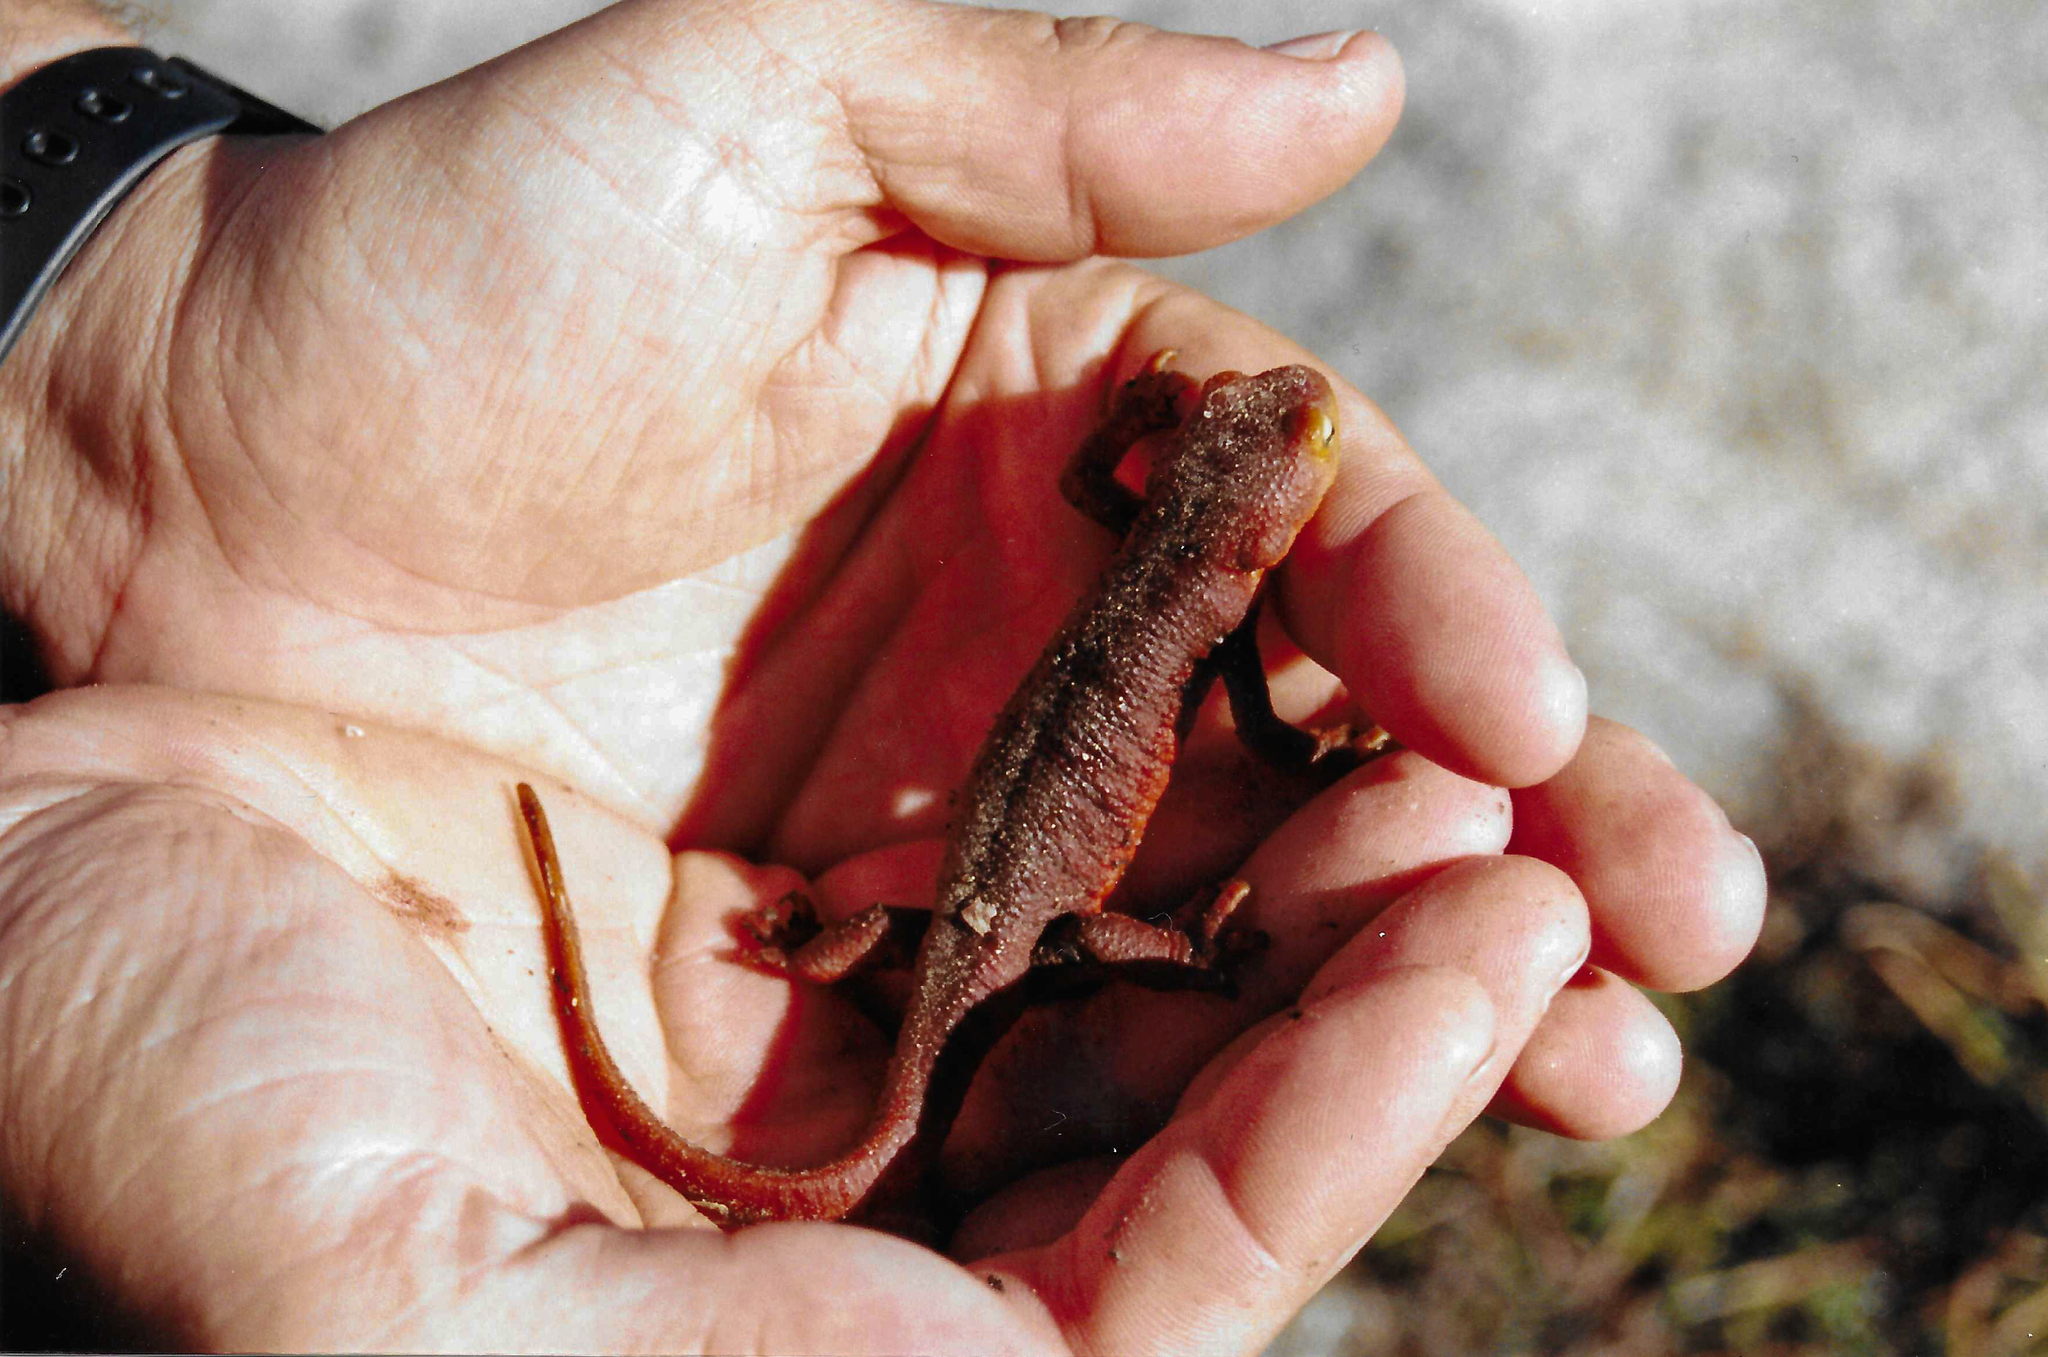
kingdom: Animalia
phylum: Chordata
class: Amphibia
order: Caudata
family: Salamandridae
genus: Taricha
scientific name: Taricha sierrae
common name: Sierra newt
